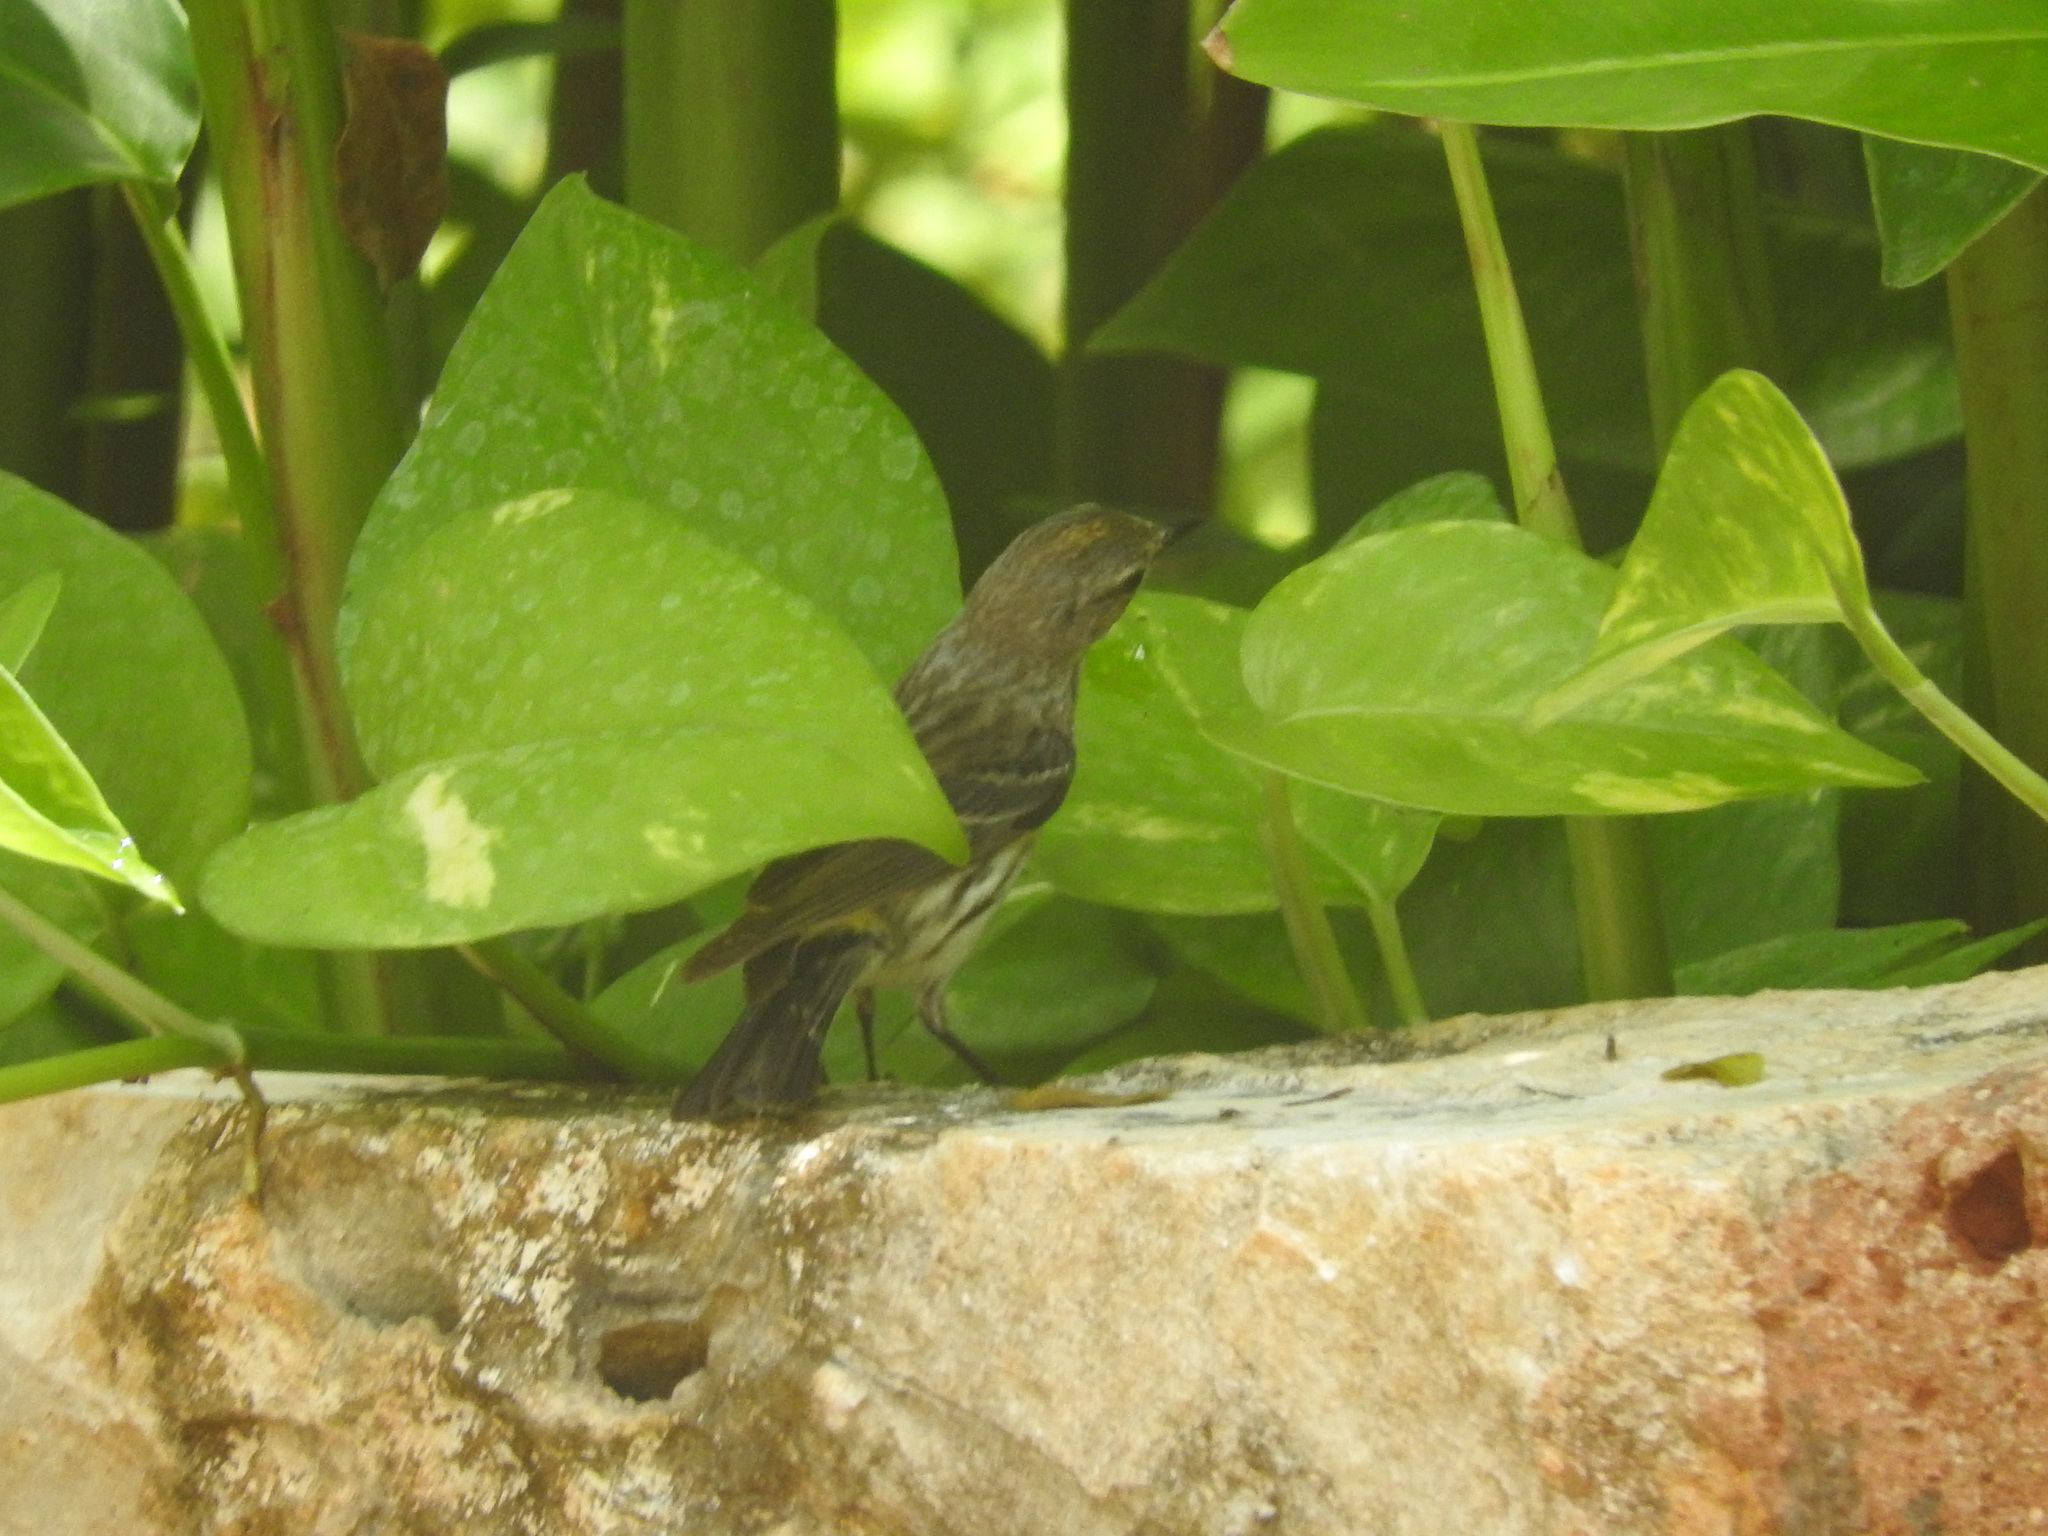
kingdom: Animalia
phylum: Chordata
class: Aves
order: Passeriformes
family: Parulidae
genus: Setophaga
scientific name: Setophaga coronata
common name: Myrtle warbler
